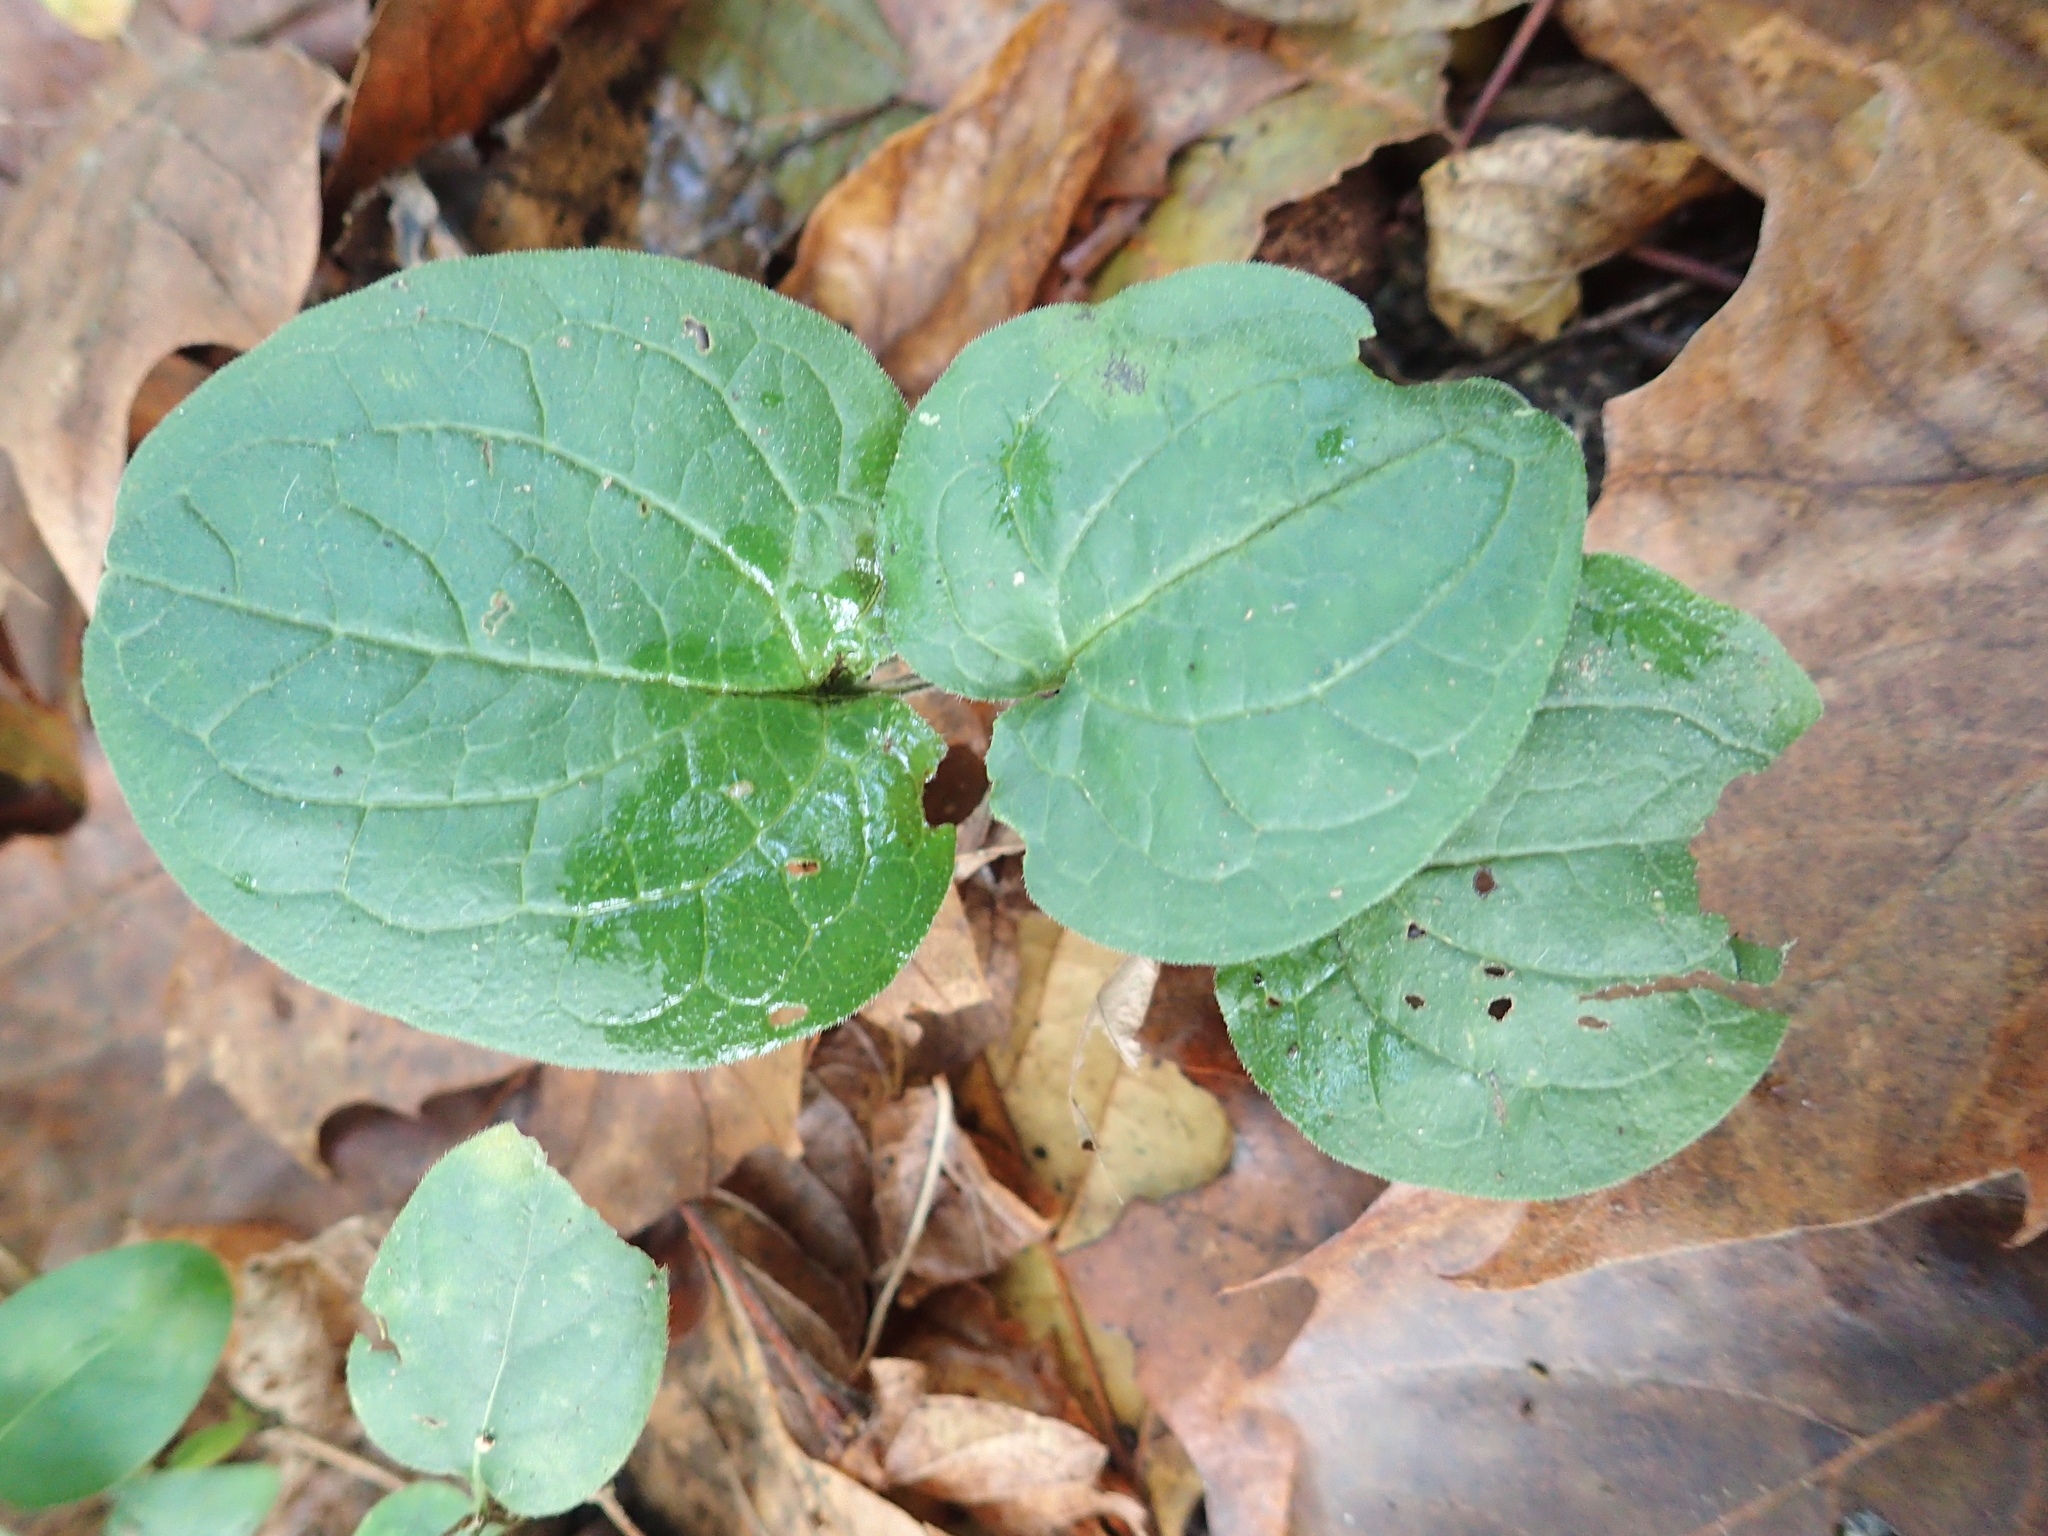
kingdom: Plantae
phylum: Tracheophyta
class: Magnoliopsida
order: Boraginales
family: Boraginaceae
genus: Hackelia
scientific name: Hackelia virginiana
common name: Beggar's-lice
